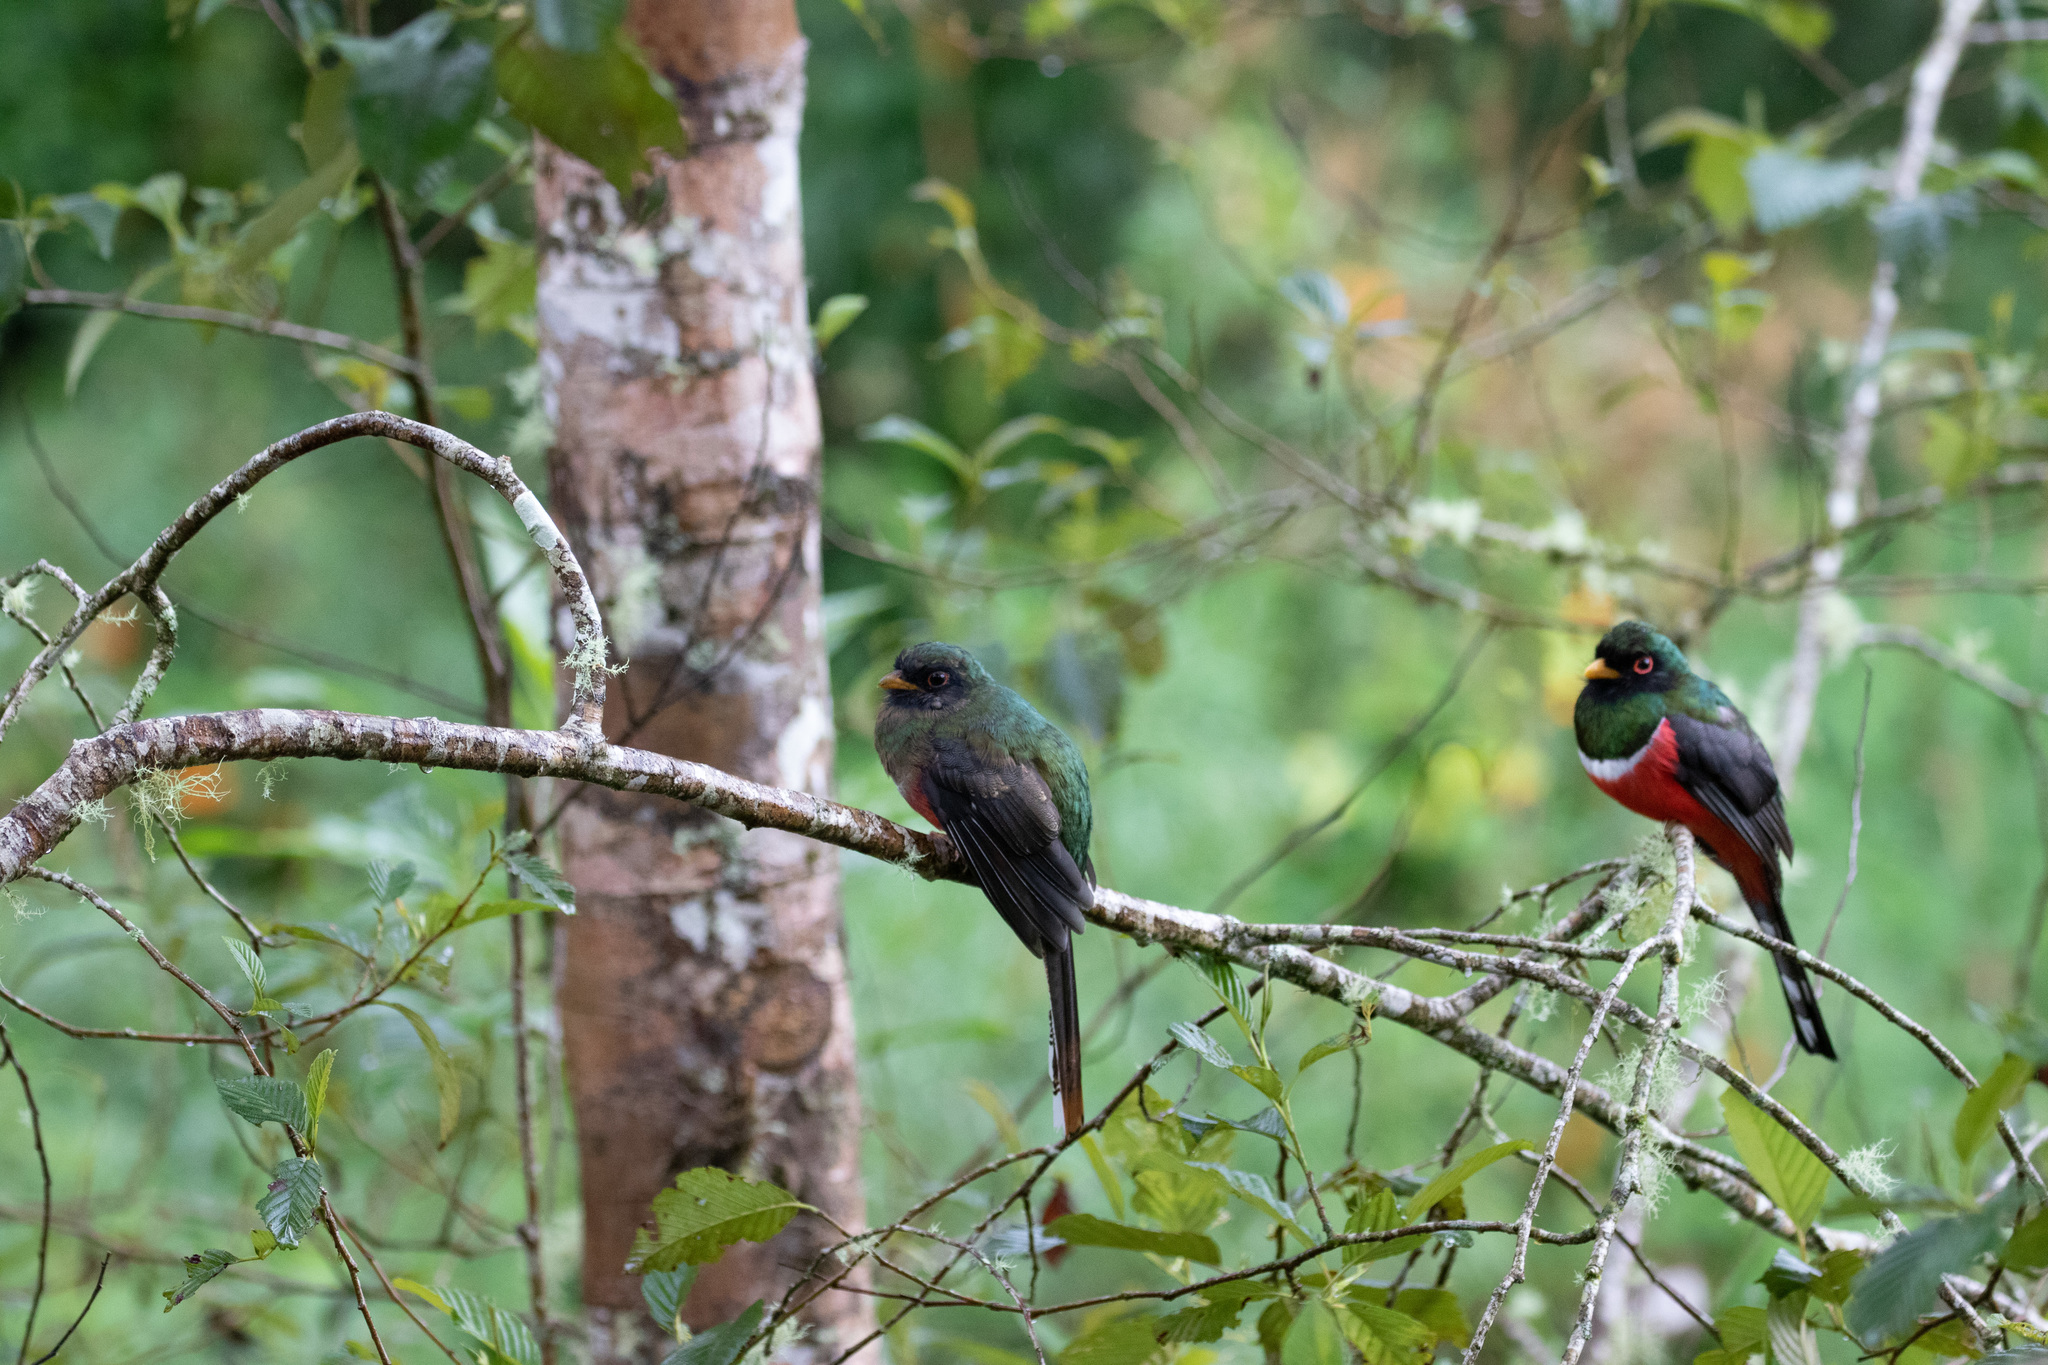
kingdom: Animalia
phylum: Chordata
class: Aves
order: Trogoniformes
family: Trogonidae
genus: Trogon
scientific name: Trogon personatus
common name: Masked trogon
